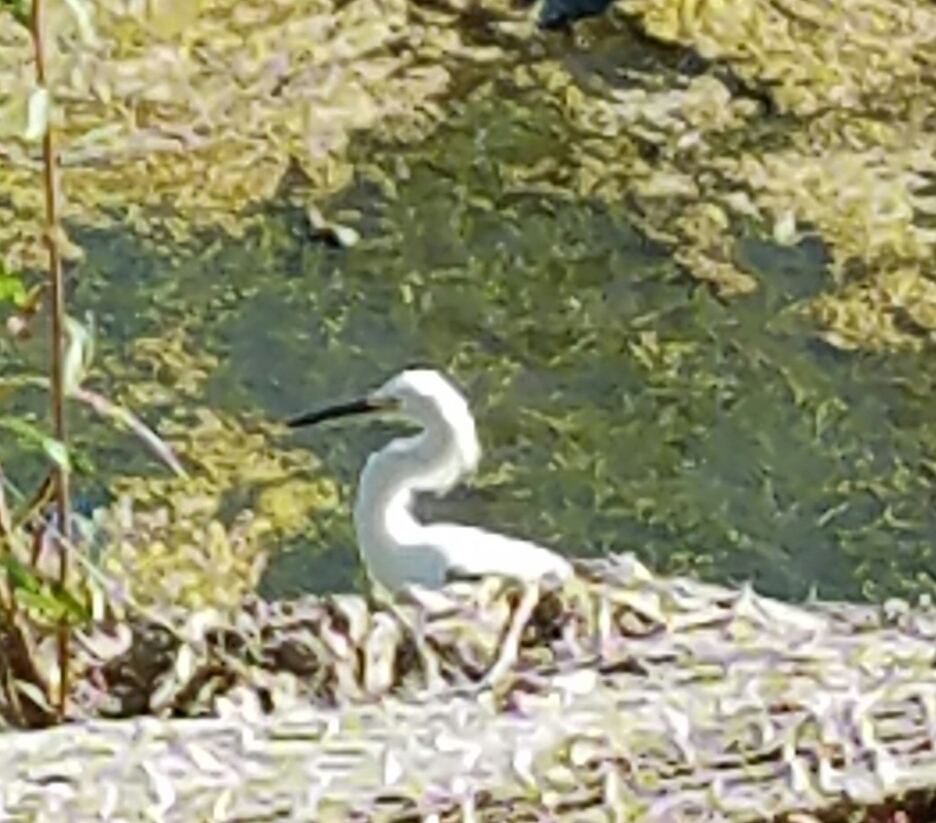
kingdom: Animalia
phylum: Chordata
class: Aves
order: Pelecaniformes
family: Ardeidae
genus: Egretta
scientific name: Egretta thula
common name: Snowy egret
